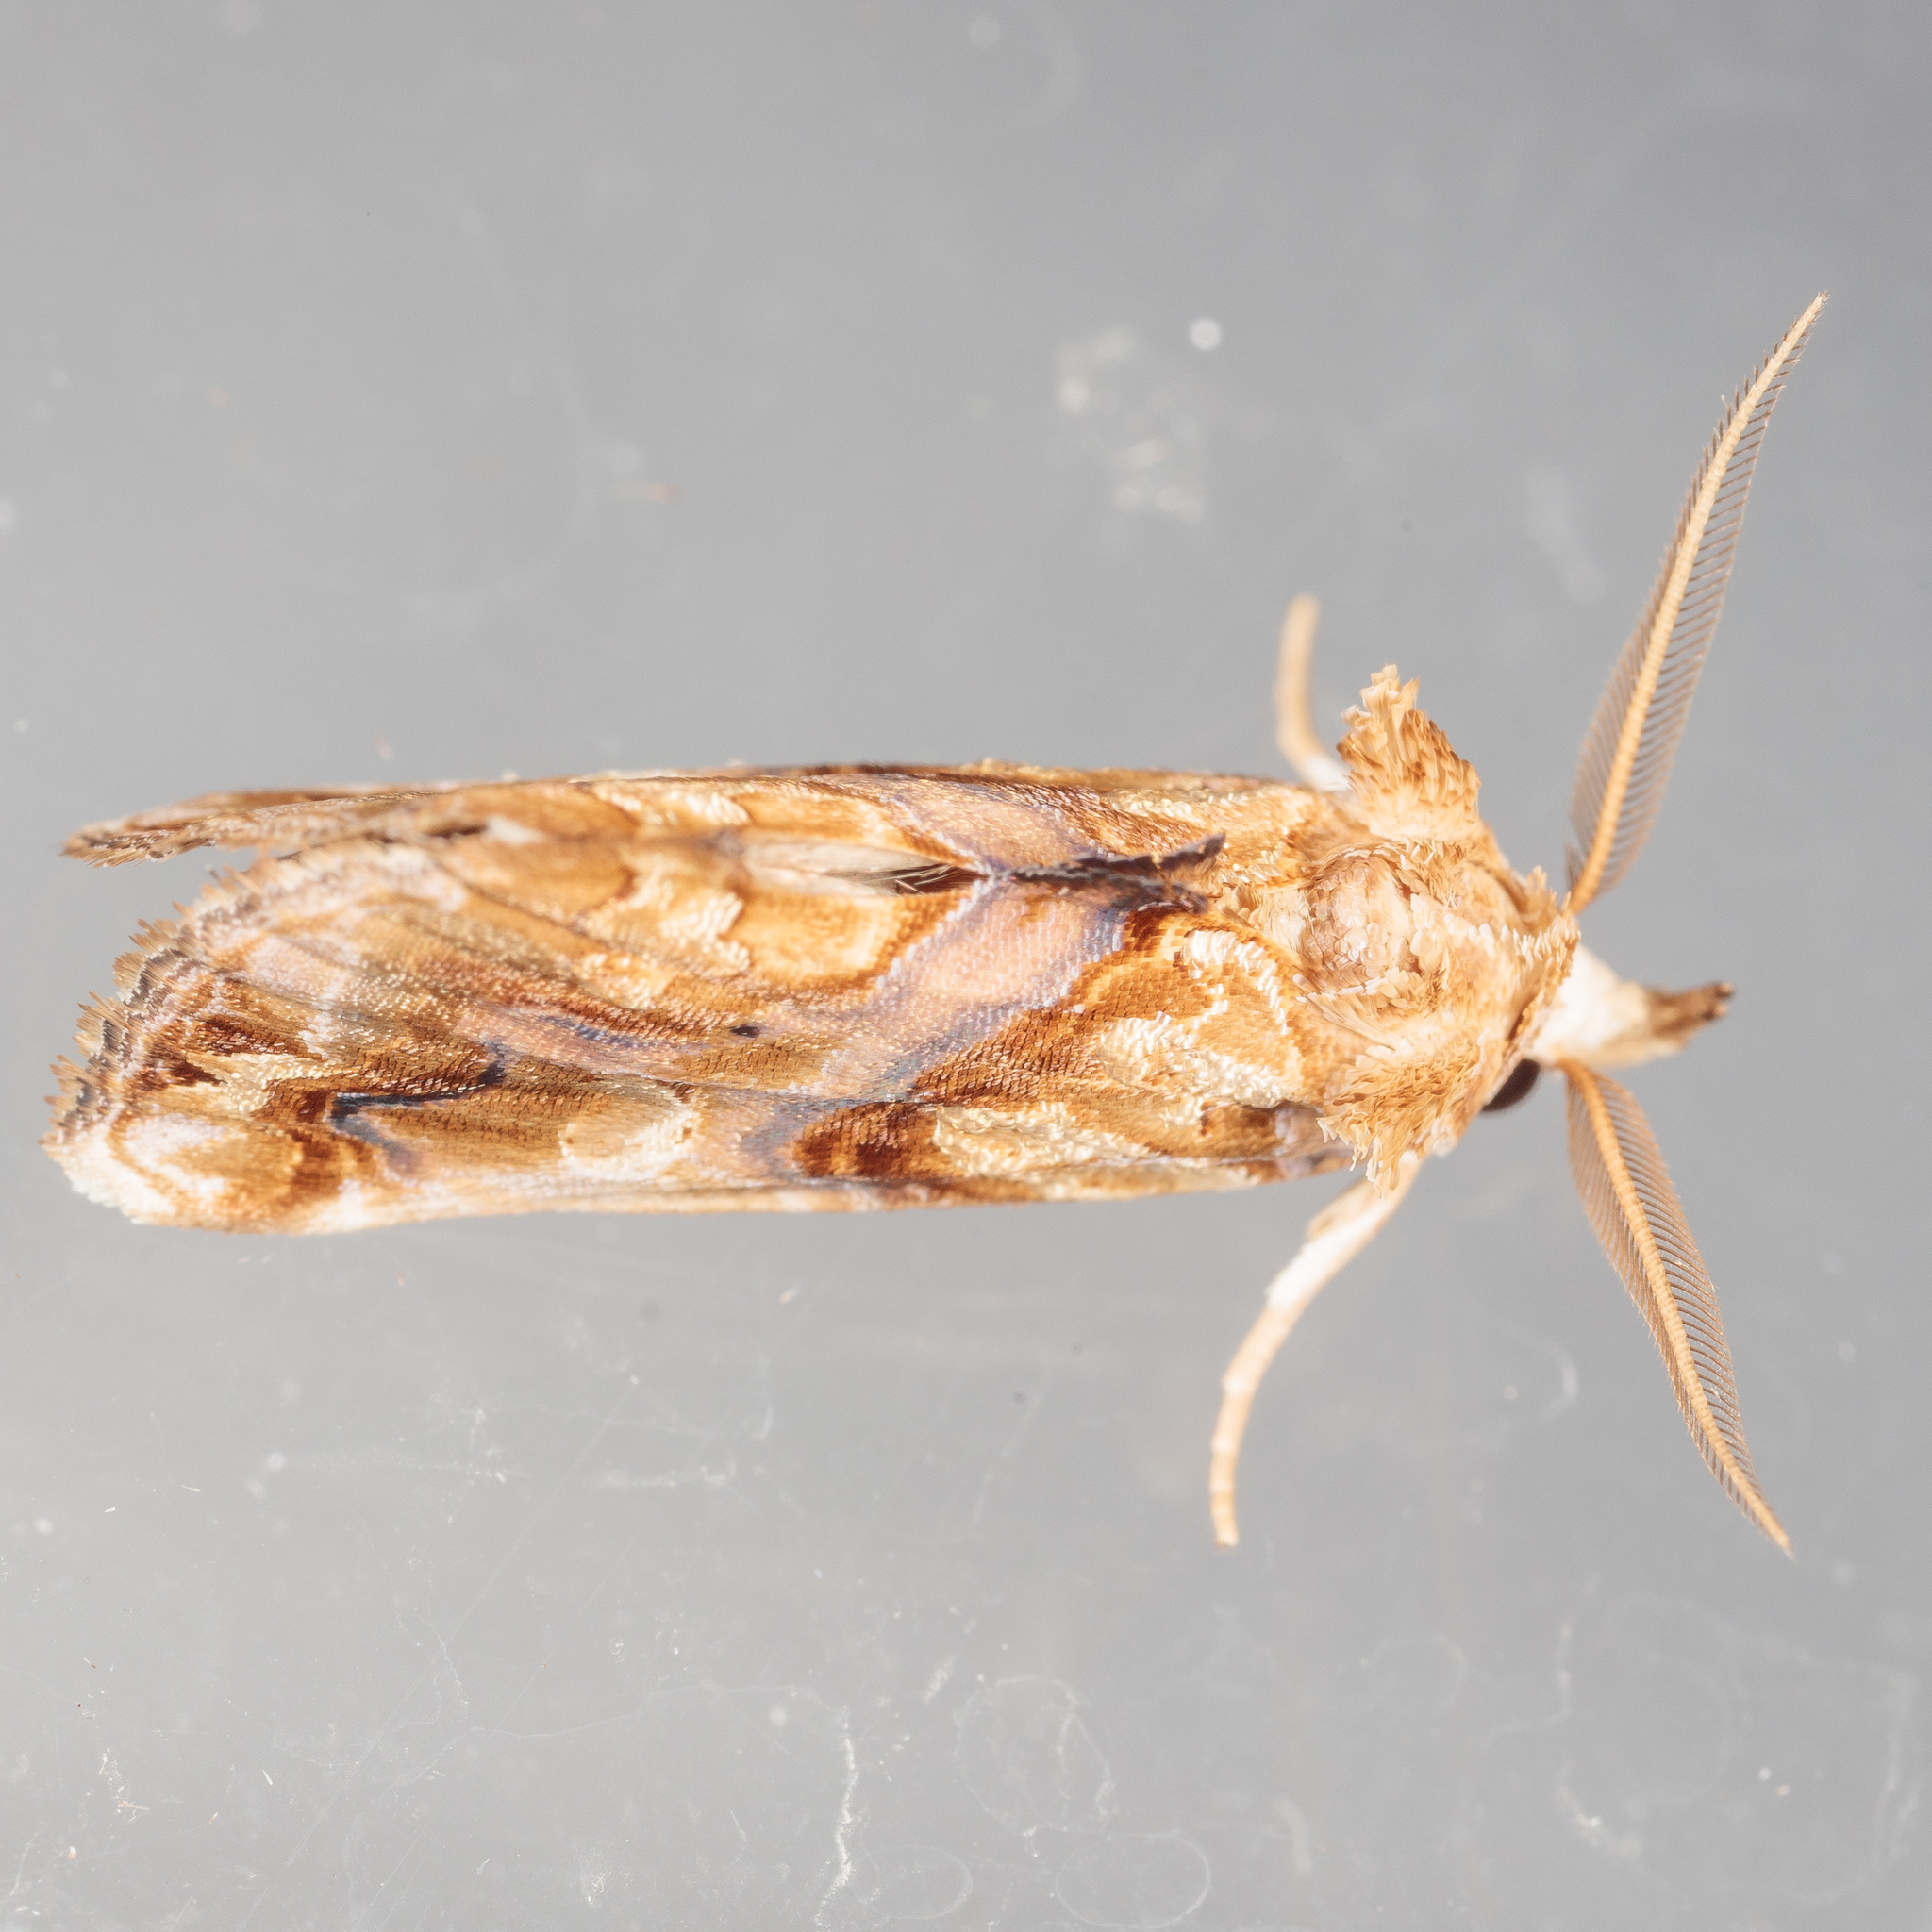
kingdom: Animalia
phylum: Arthropoda
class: Insecta
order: Lepidoptera
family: Erebidae
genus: Plusiodonta
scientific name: Plusiodonta compressipalpis
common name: Moonseed moth
